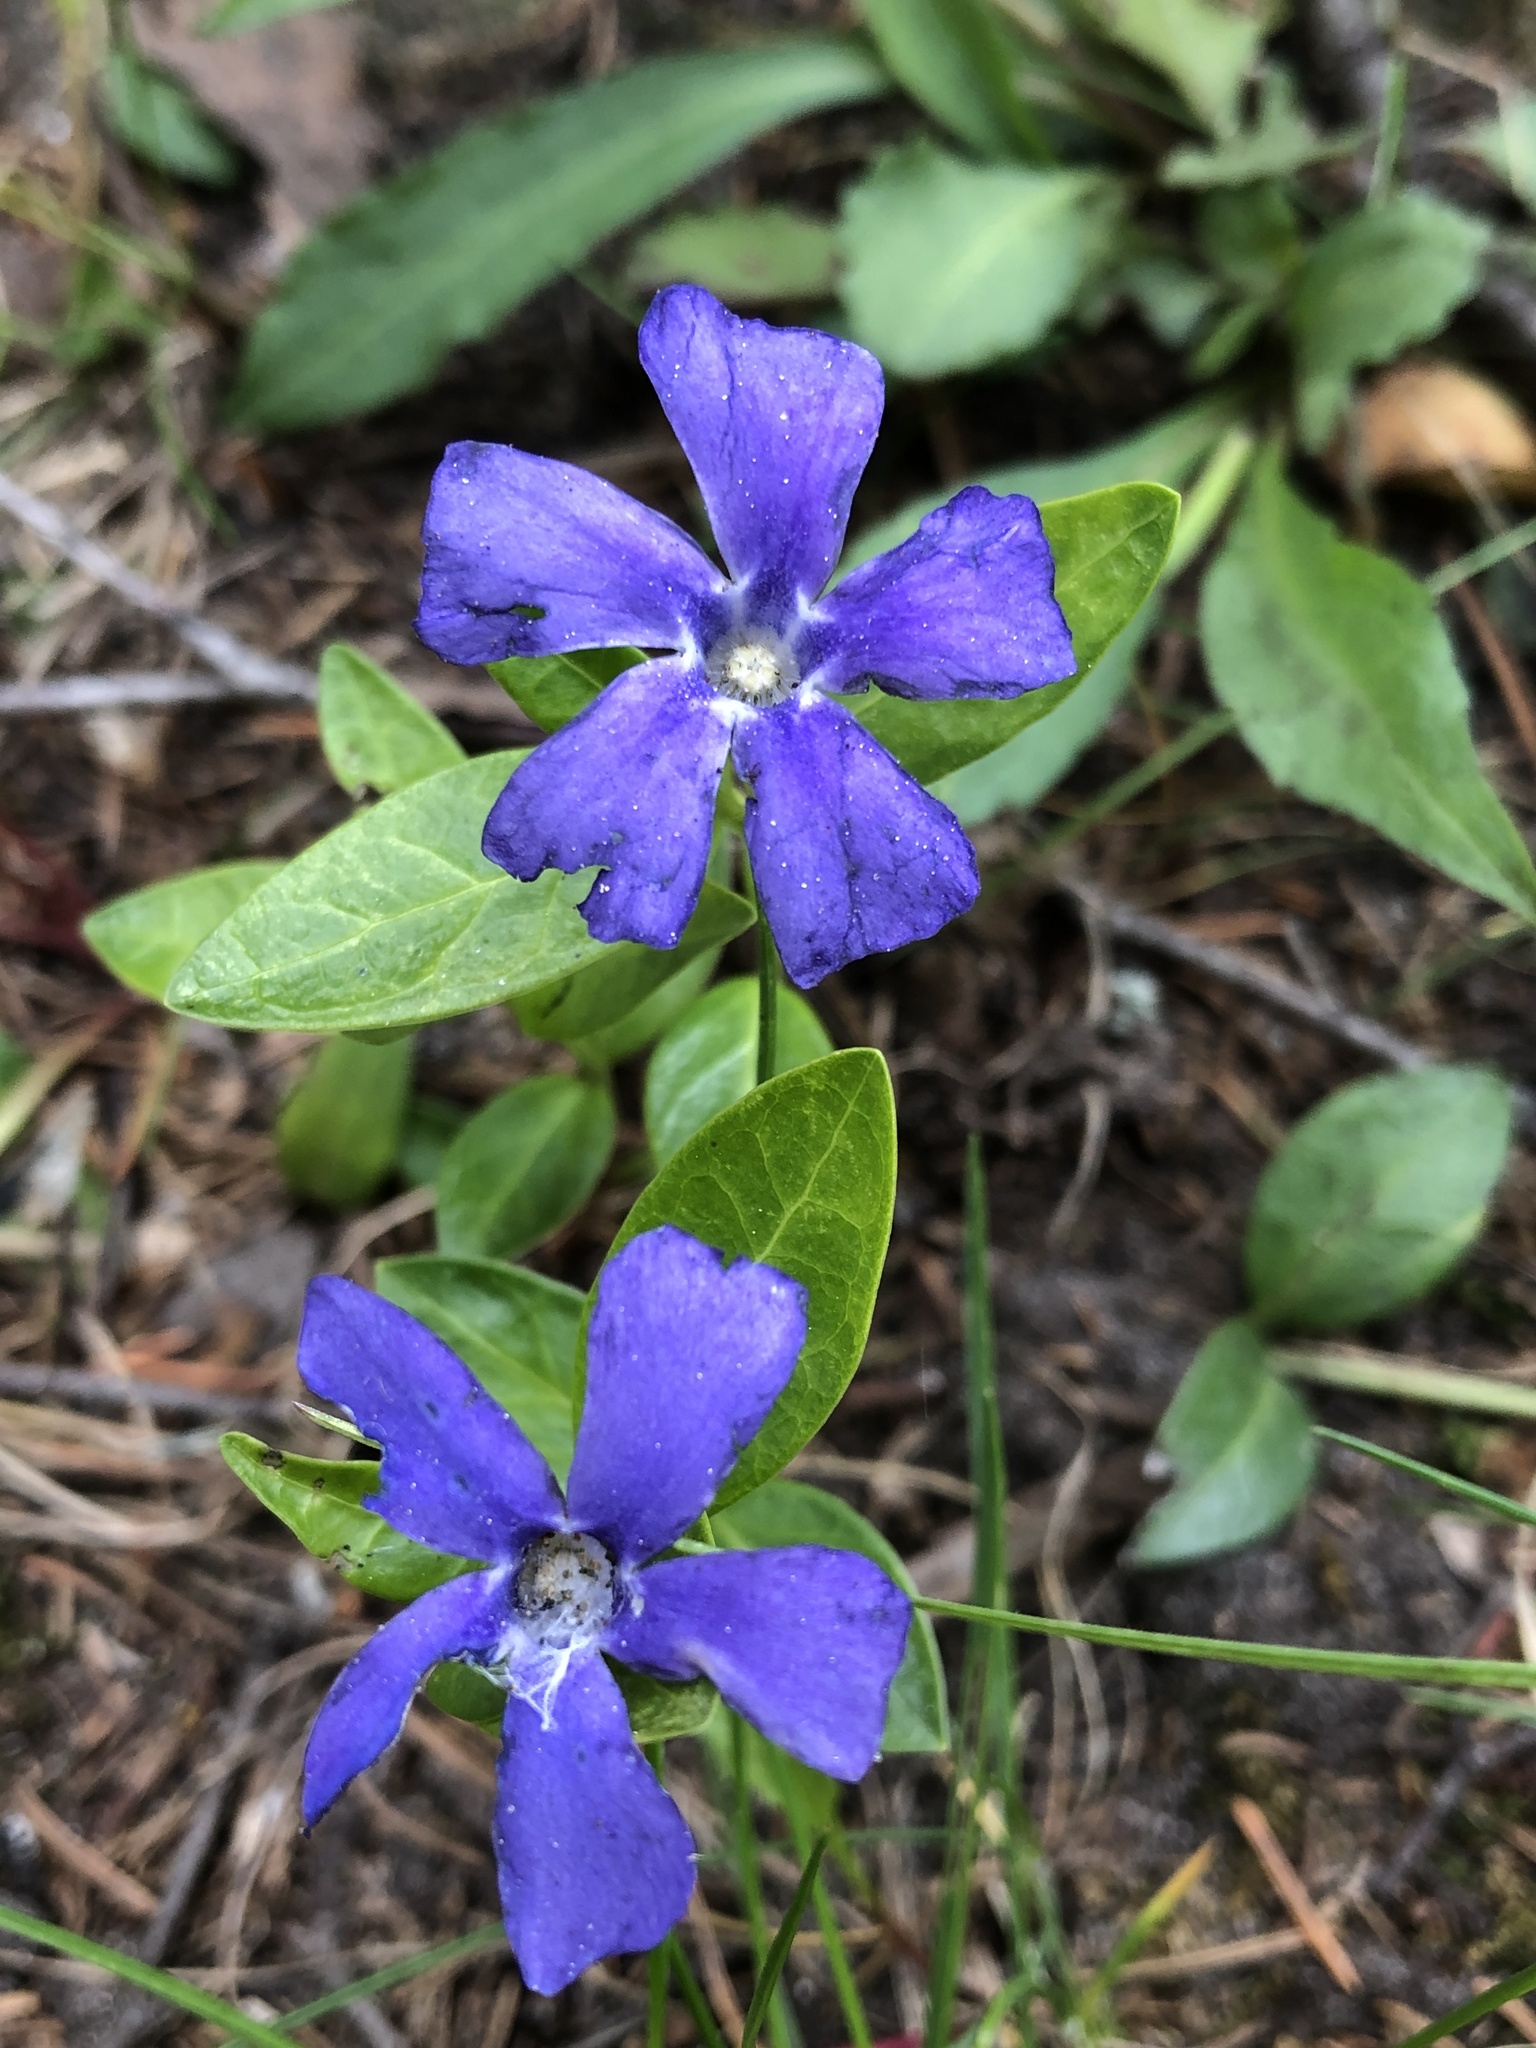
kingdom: Plantae
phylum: Tracheophyta
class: Magnoliopsida
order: Gentianales
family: Apocynaceae
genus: Vinca
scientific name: Vinca minor
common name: Lesser periwinkle
